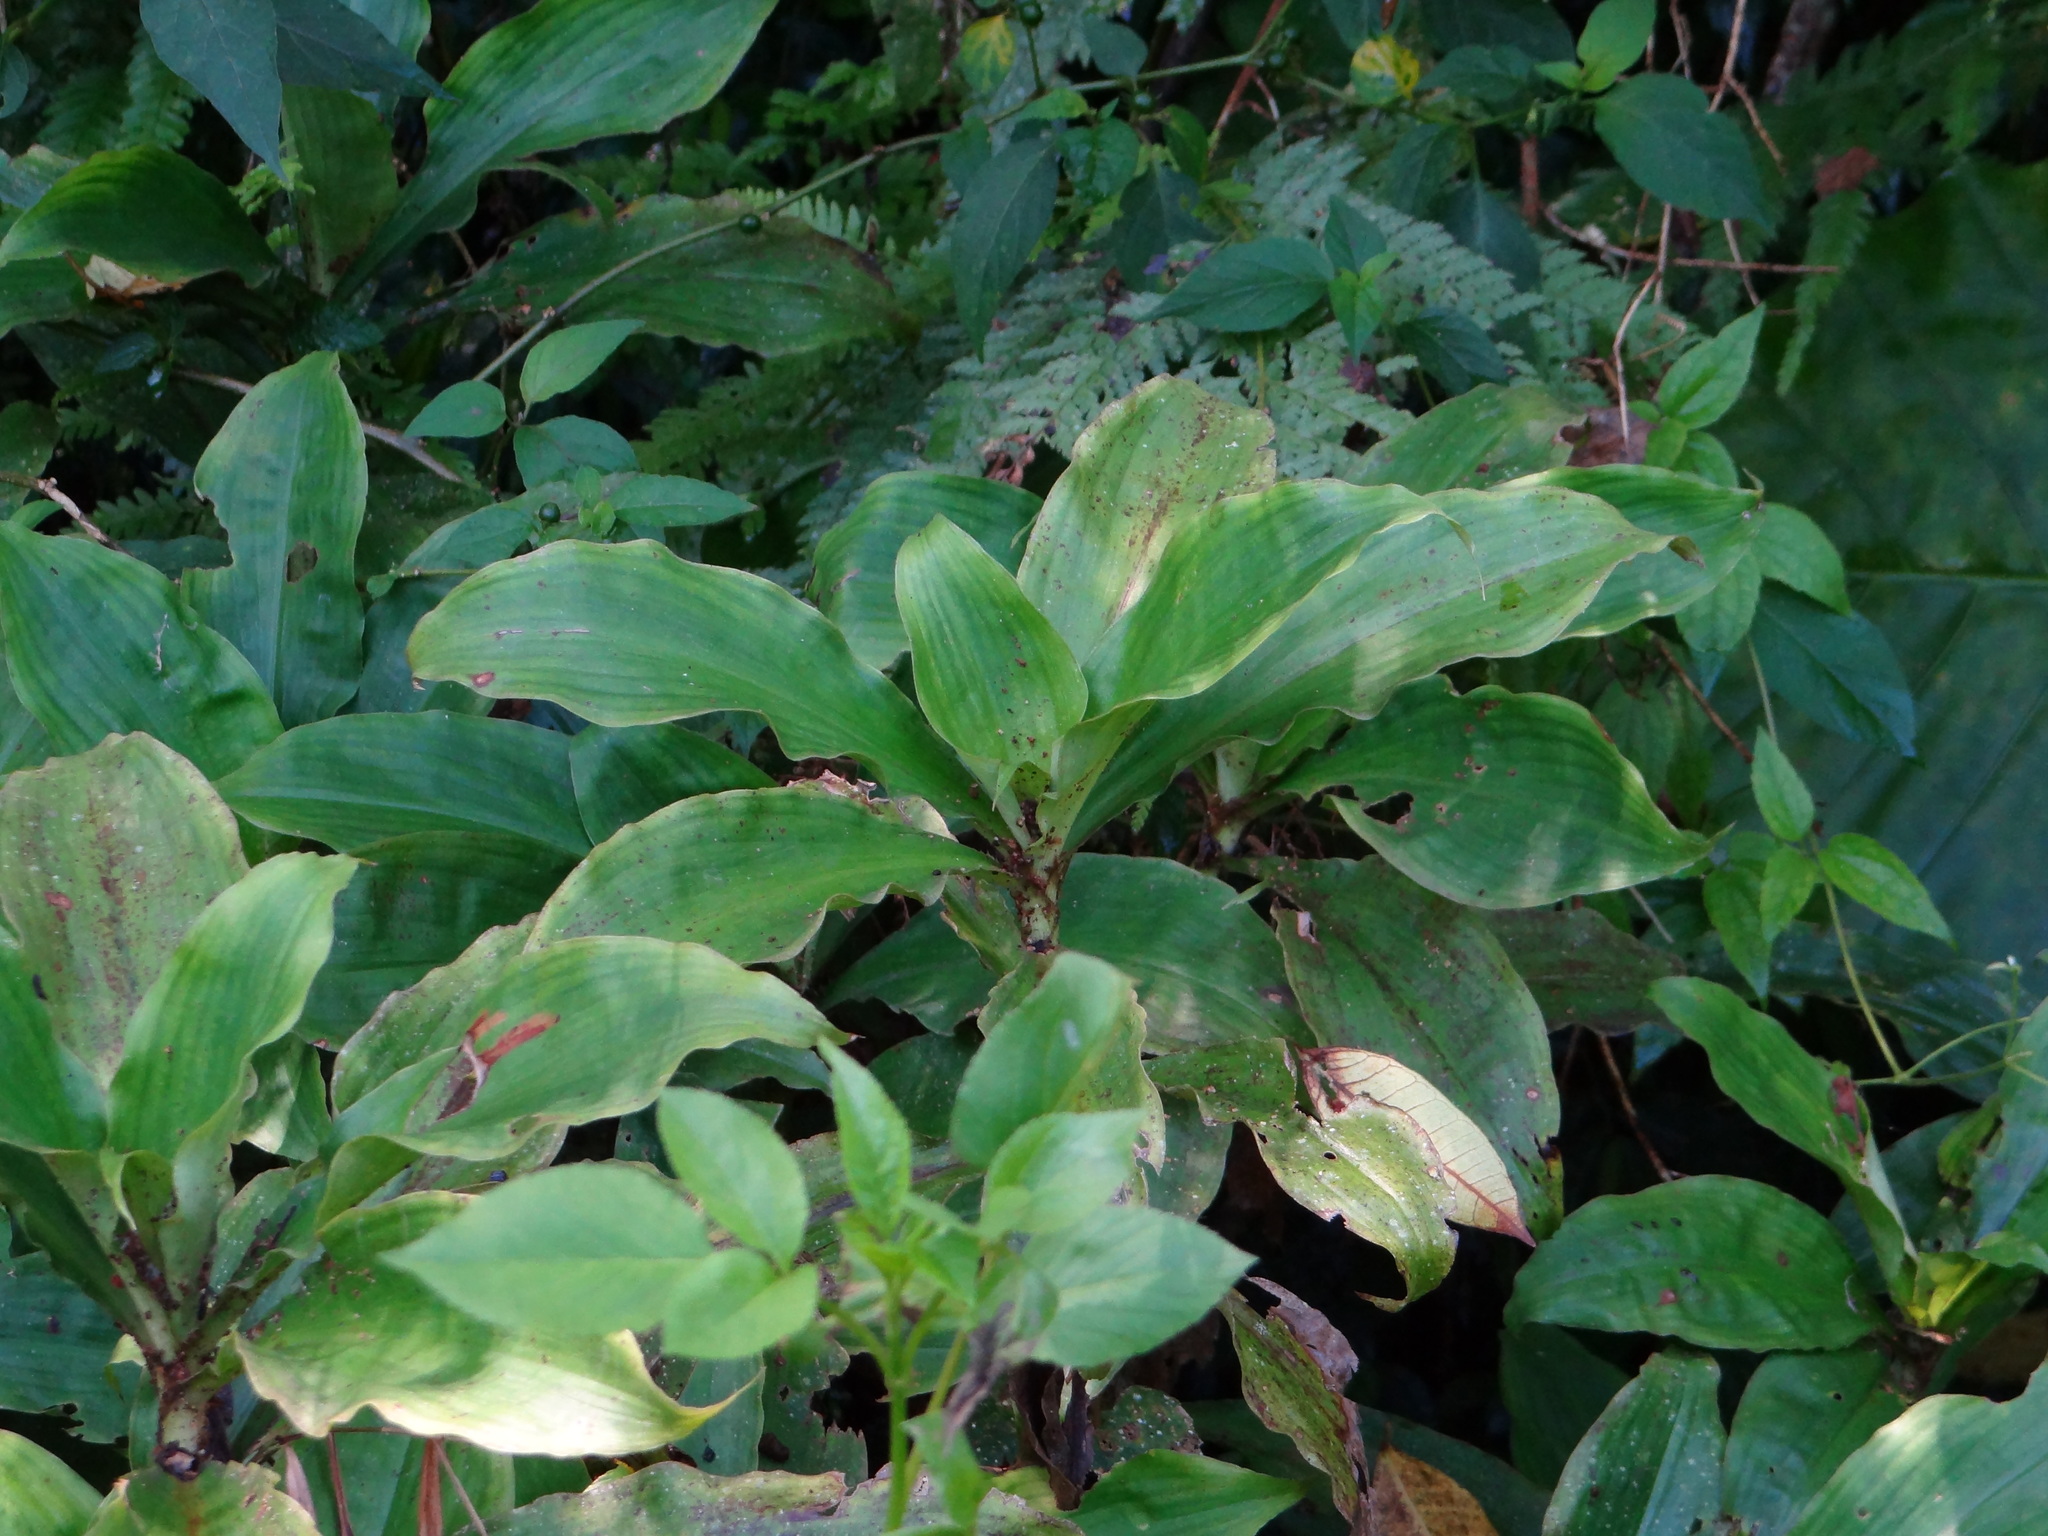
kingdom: Plantae
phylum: Tracheophyta
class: Liliopsida
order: Commelinales
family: Commelinaceae
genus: Amischotolype
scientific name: Amischotolype glabrata
